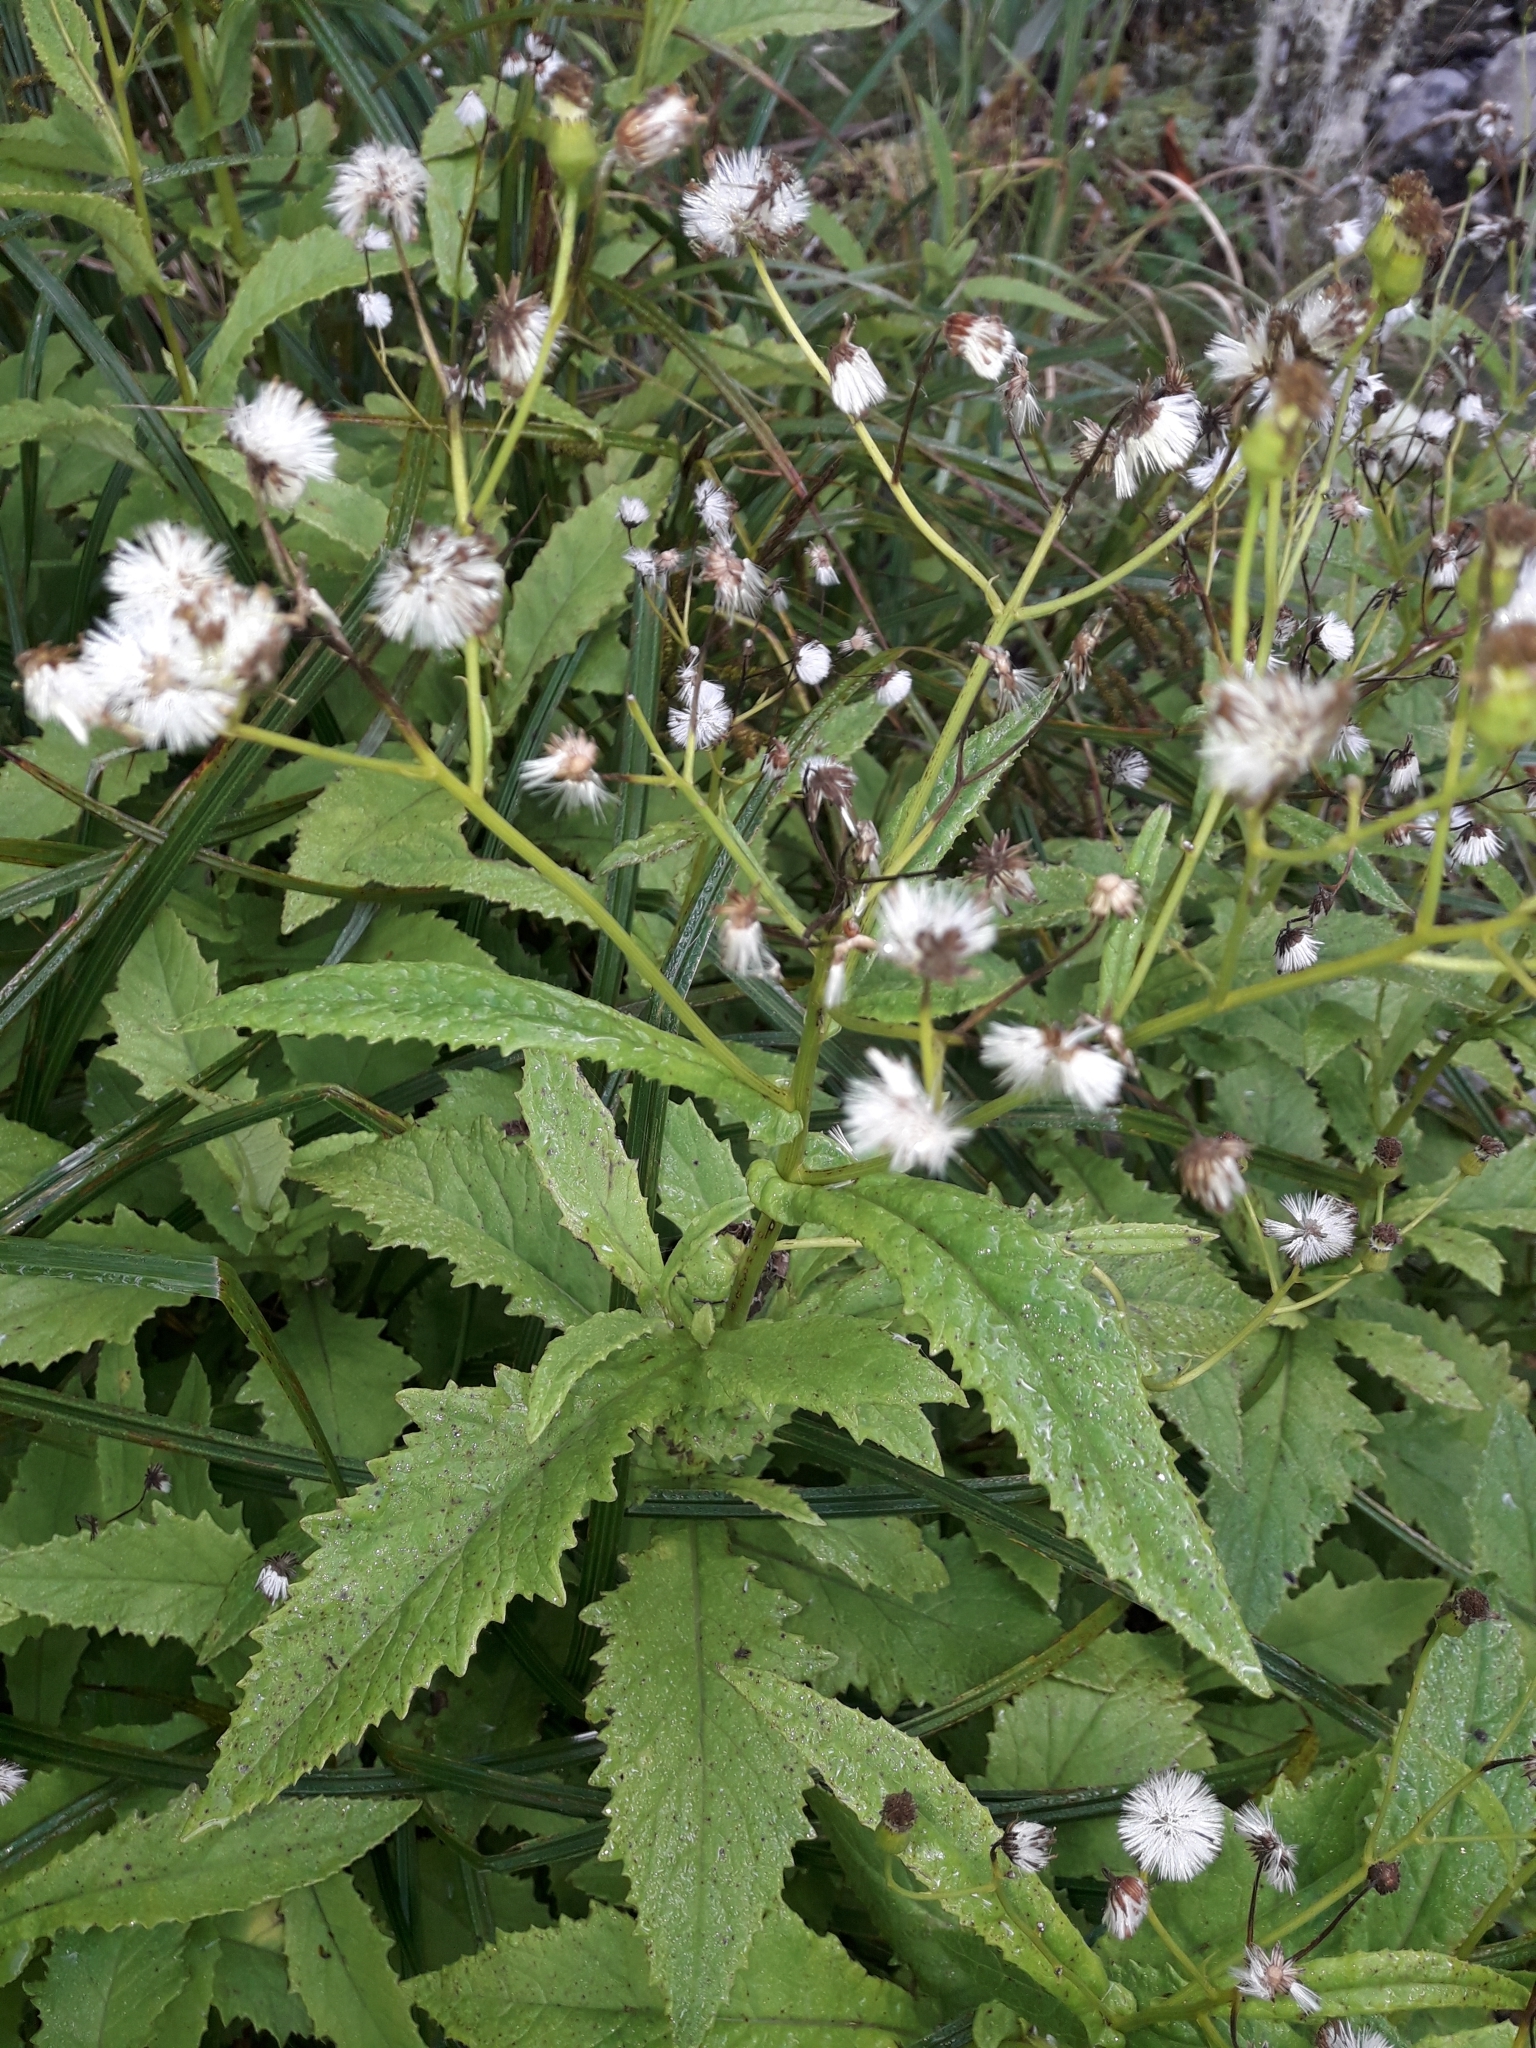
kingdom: Plantae
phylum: Tracheophyta
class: Magnoliopsida
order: Asterales
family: Asteraceae
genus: Senecio
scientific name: Senecio rufiglandulosus
